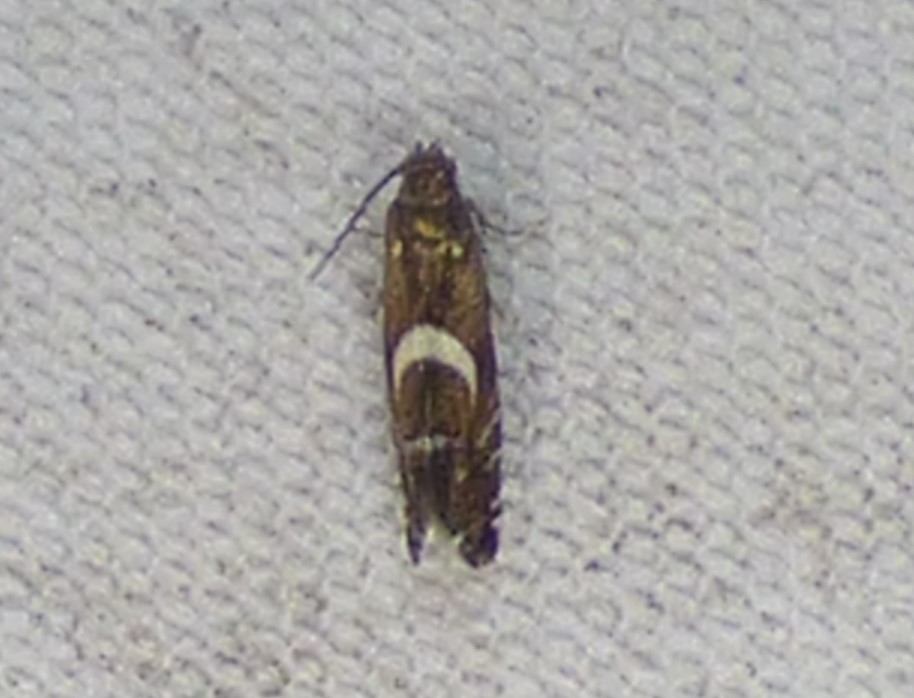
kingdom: Animalia
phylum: Arthropoda
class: Insecta
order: Lepidoptera
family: Glyphipterigidae
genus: Glyphipterix
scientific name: Glyphipterix Diploschizia impigritella
